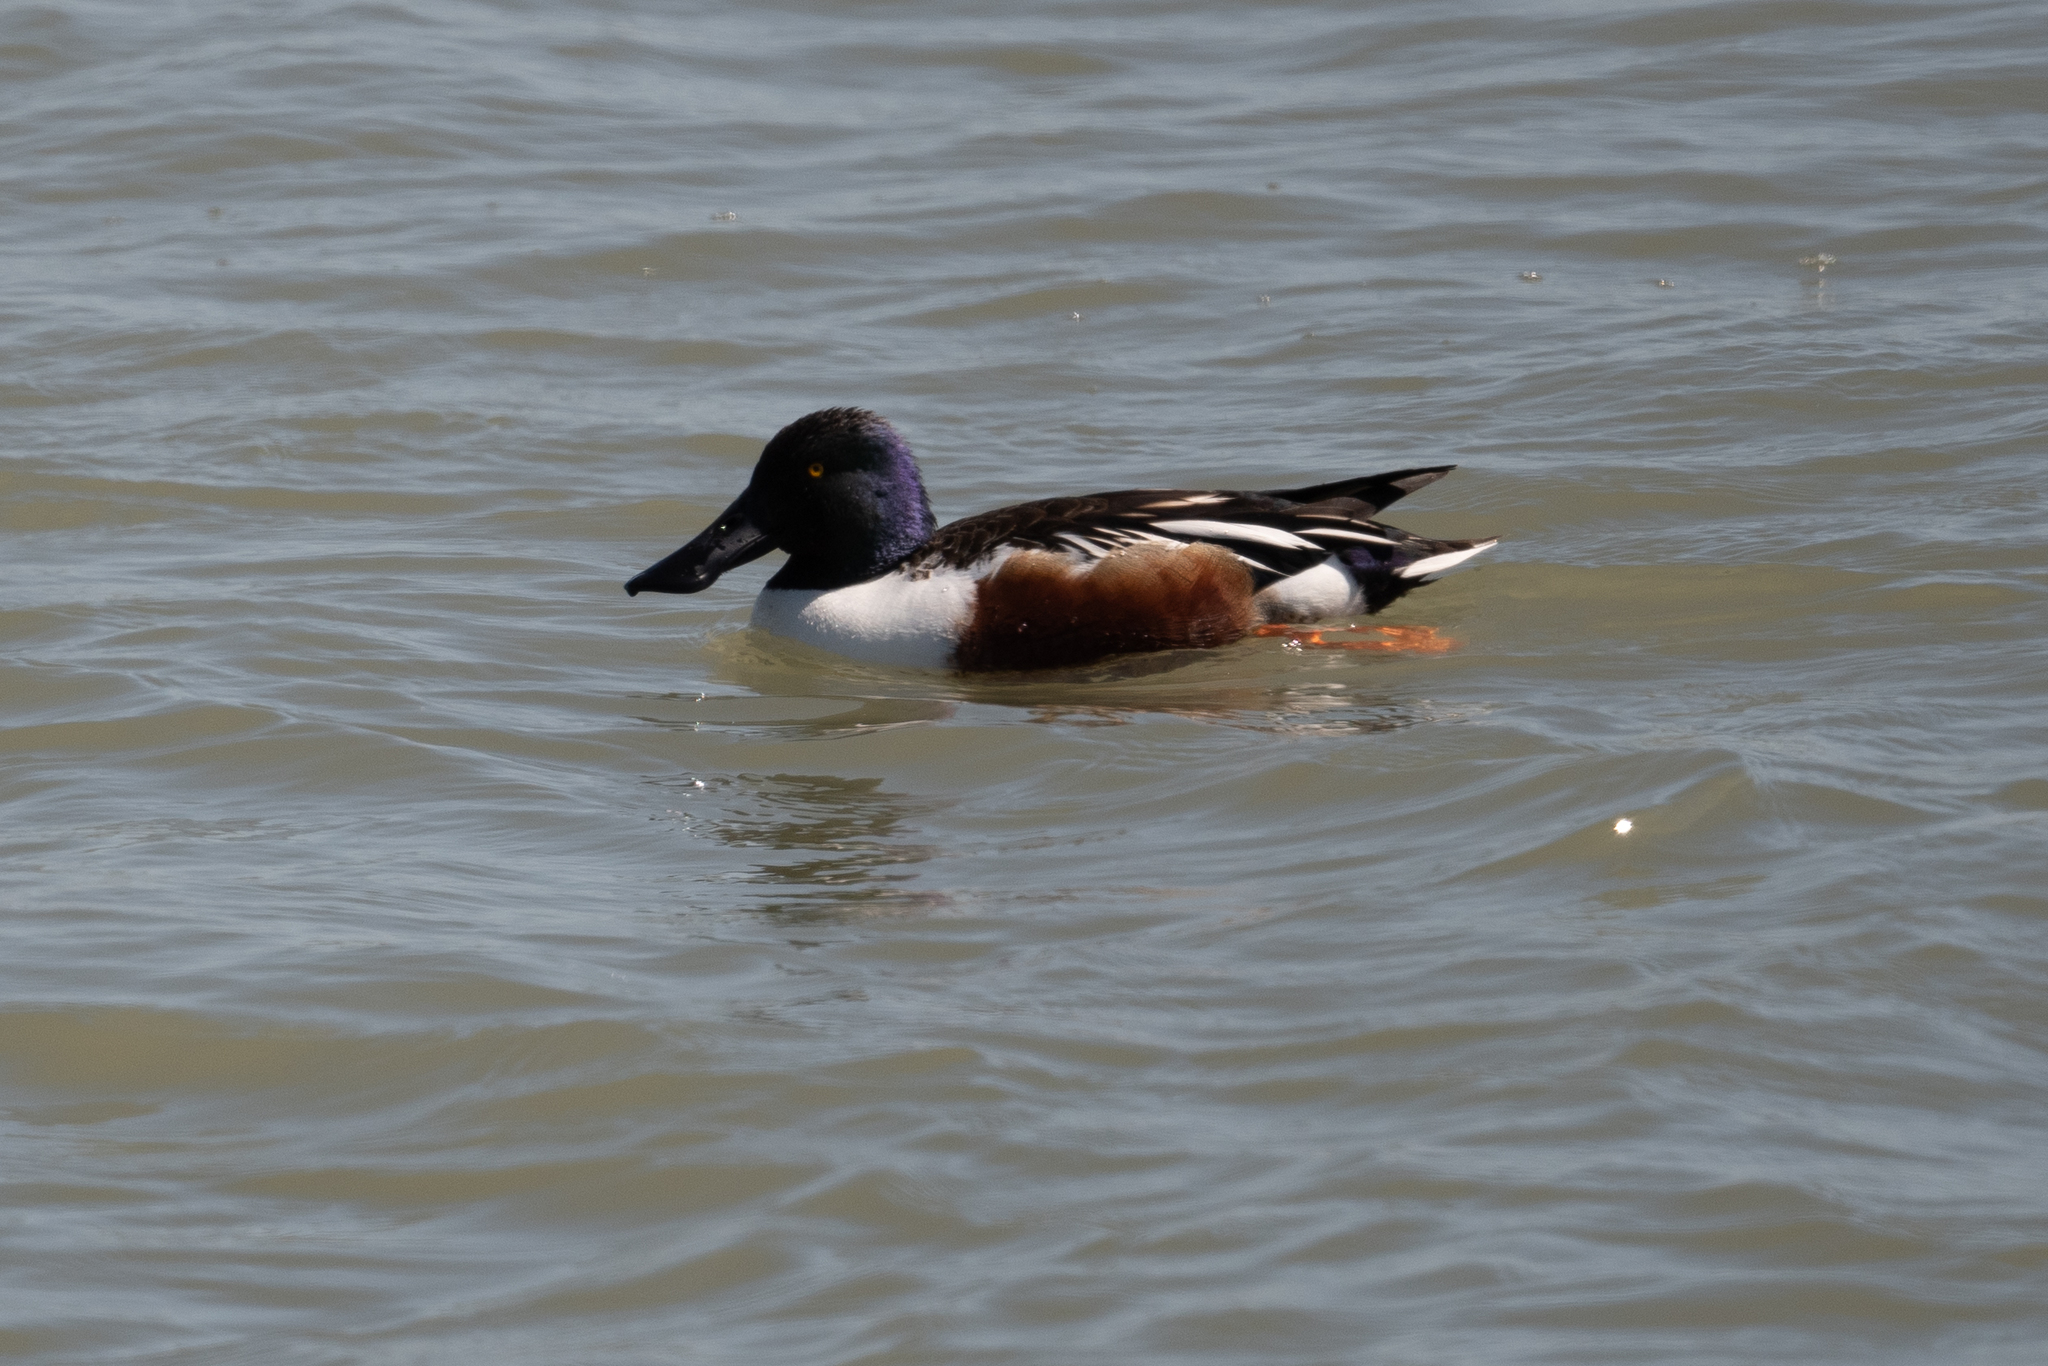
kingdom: Animalia
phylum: Chordata
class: Aves
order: Anseriformes
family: Anatidae
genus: Spatula
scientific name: Spatula clypeata
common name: Northern shoveler
